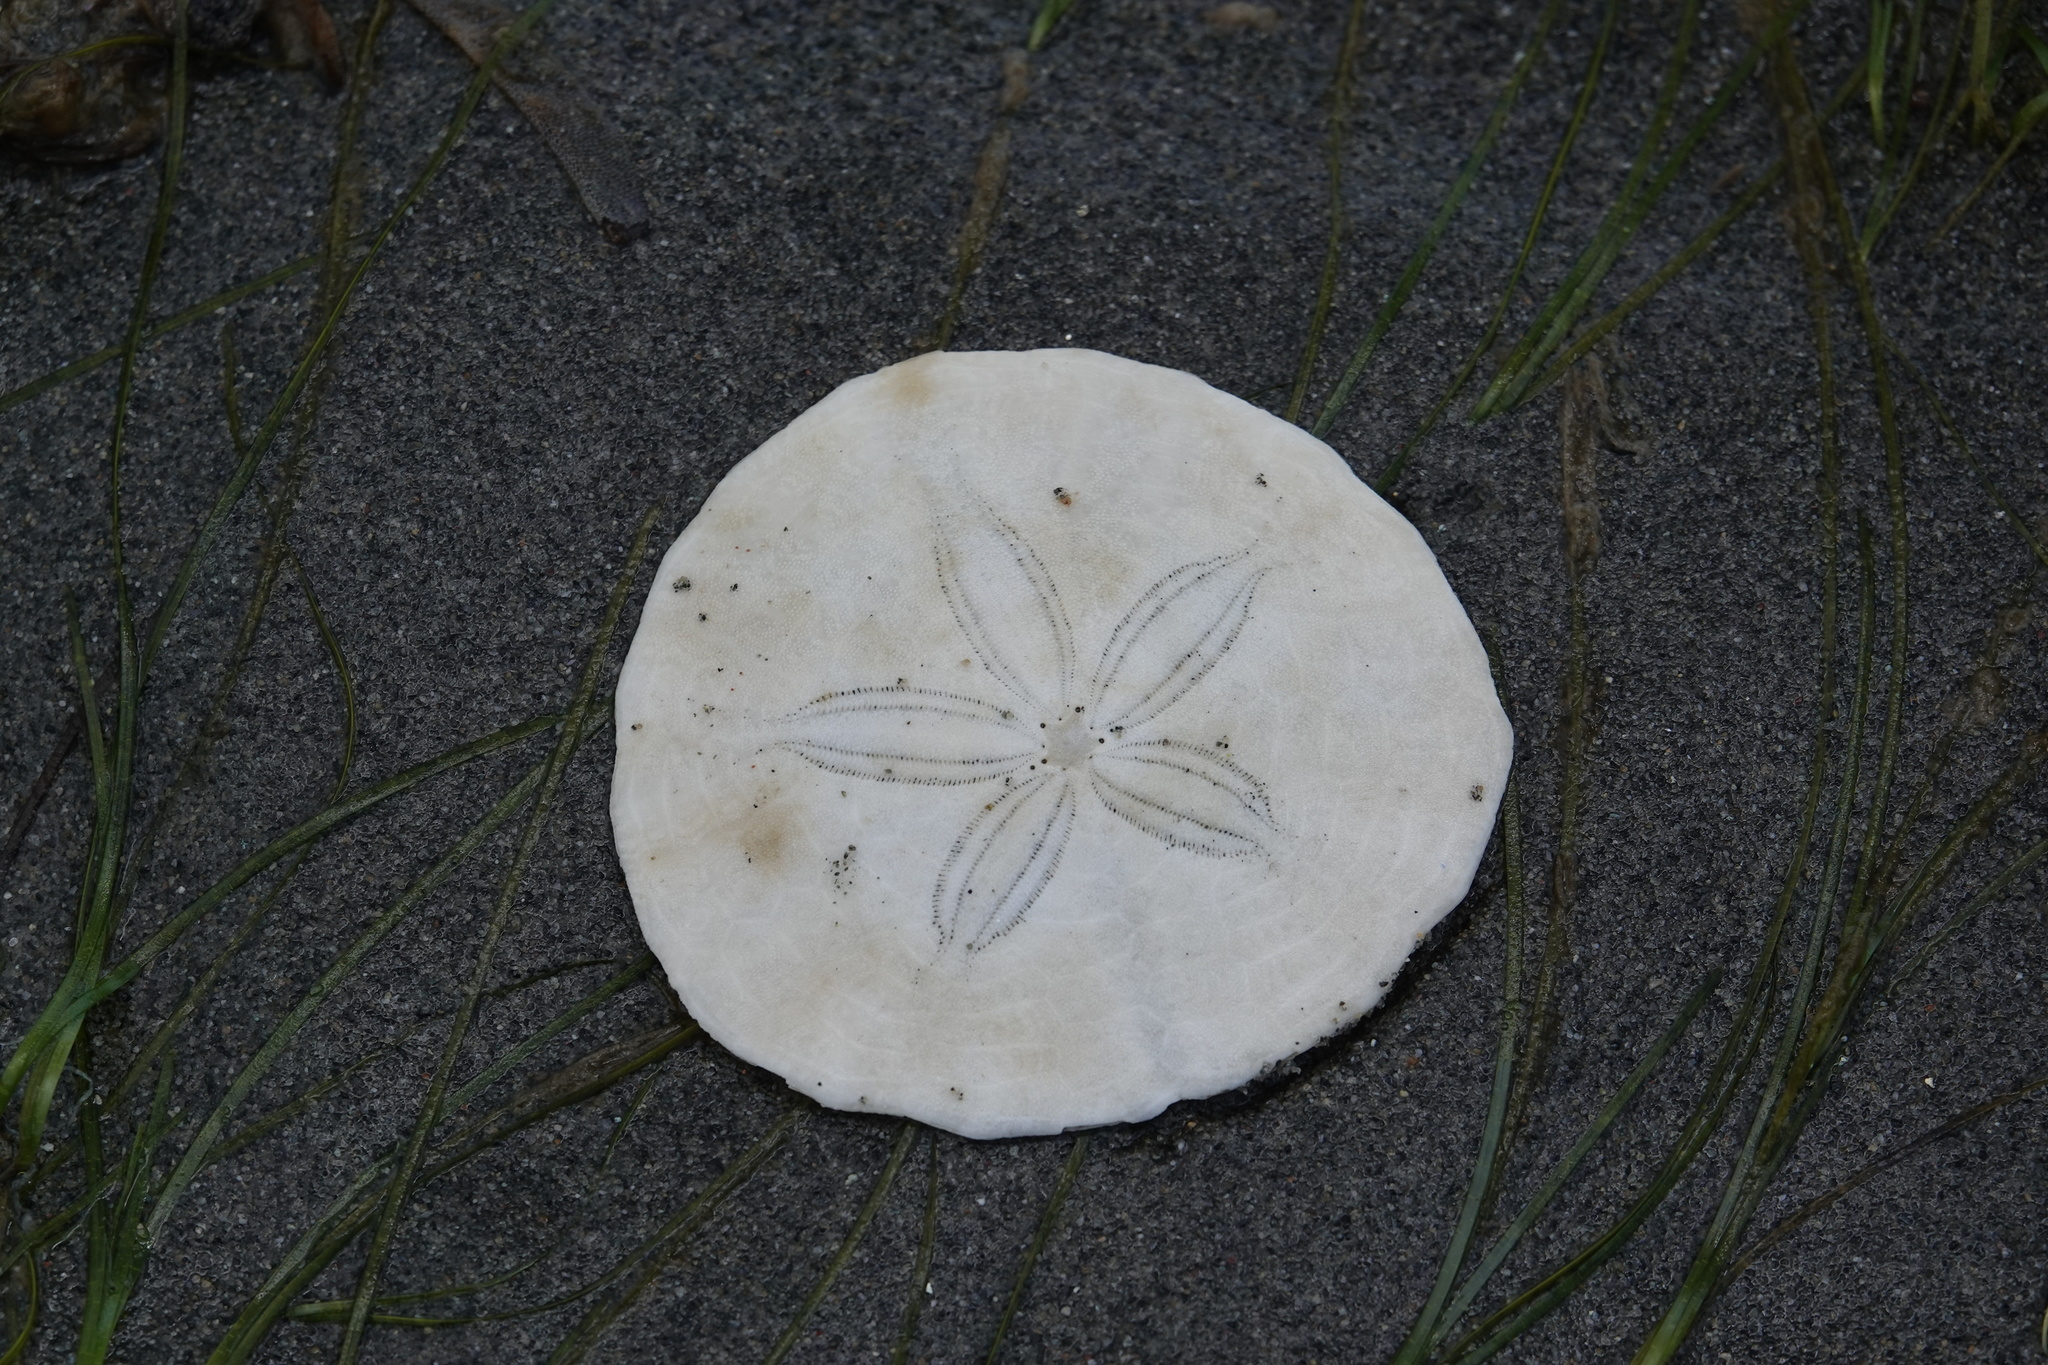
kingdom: Animalia
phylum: Echinodermata
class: Echinoidea
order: Echinolampadacea
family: Dendrasteridae
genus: Dendraster
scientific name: Dendraster excentricus
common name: Eccentric sand dollar sea urchin
